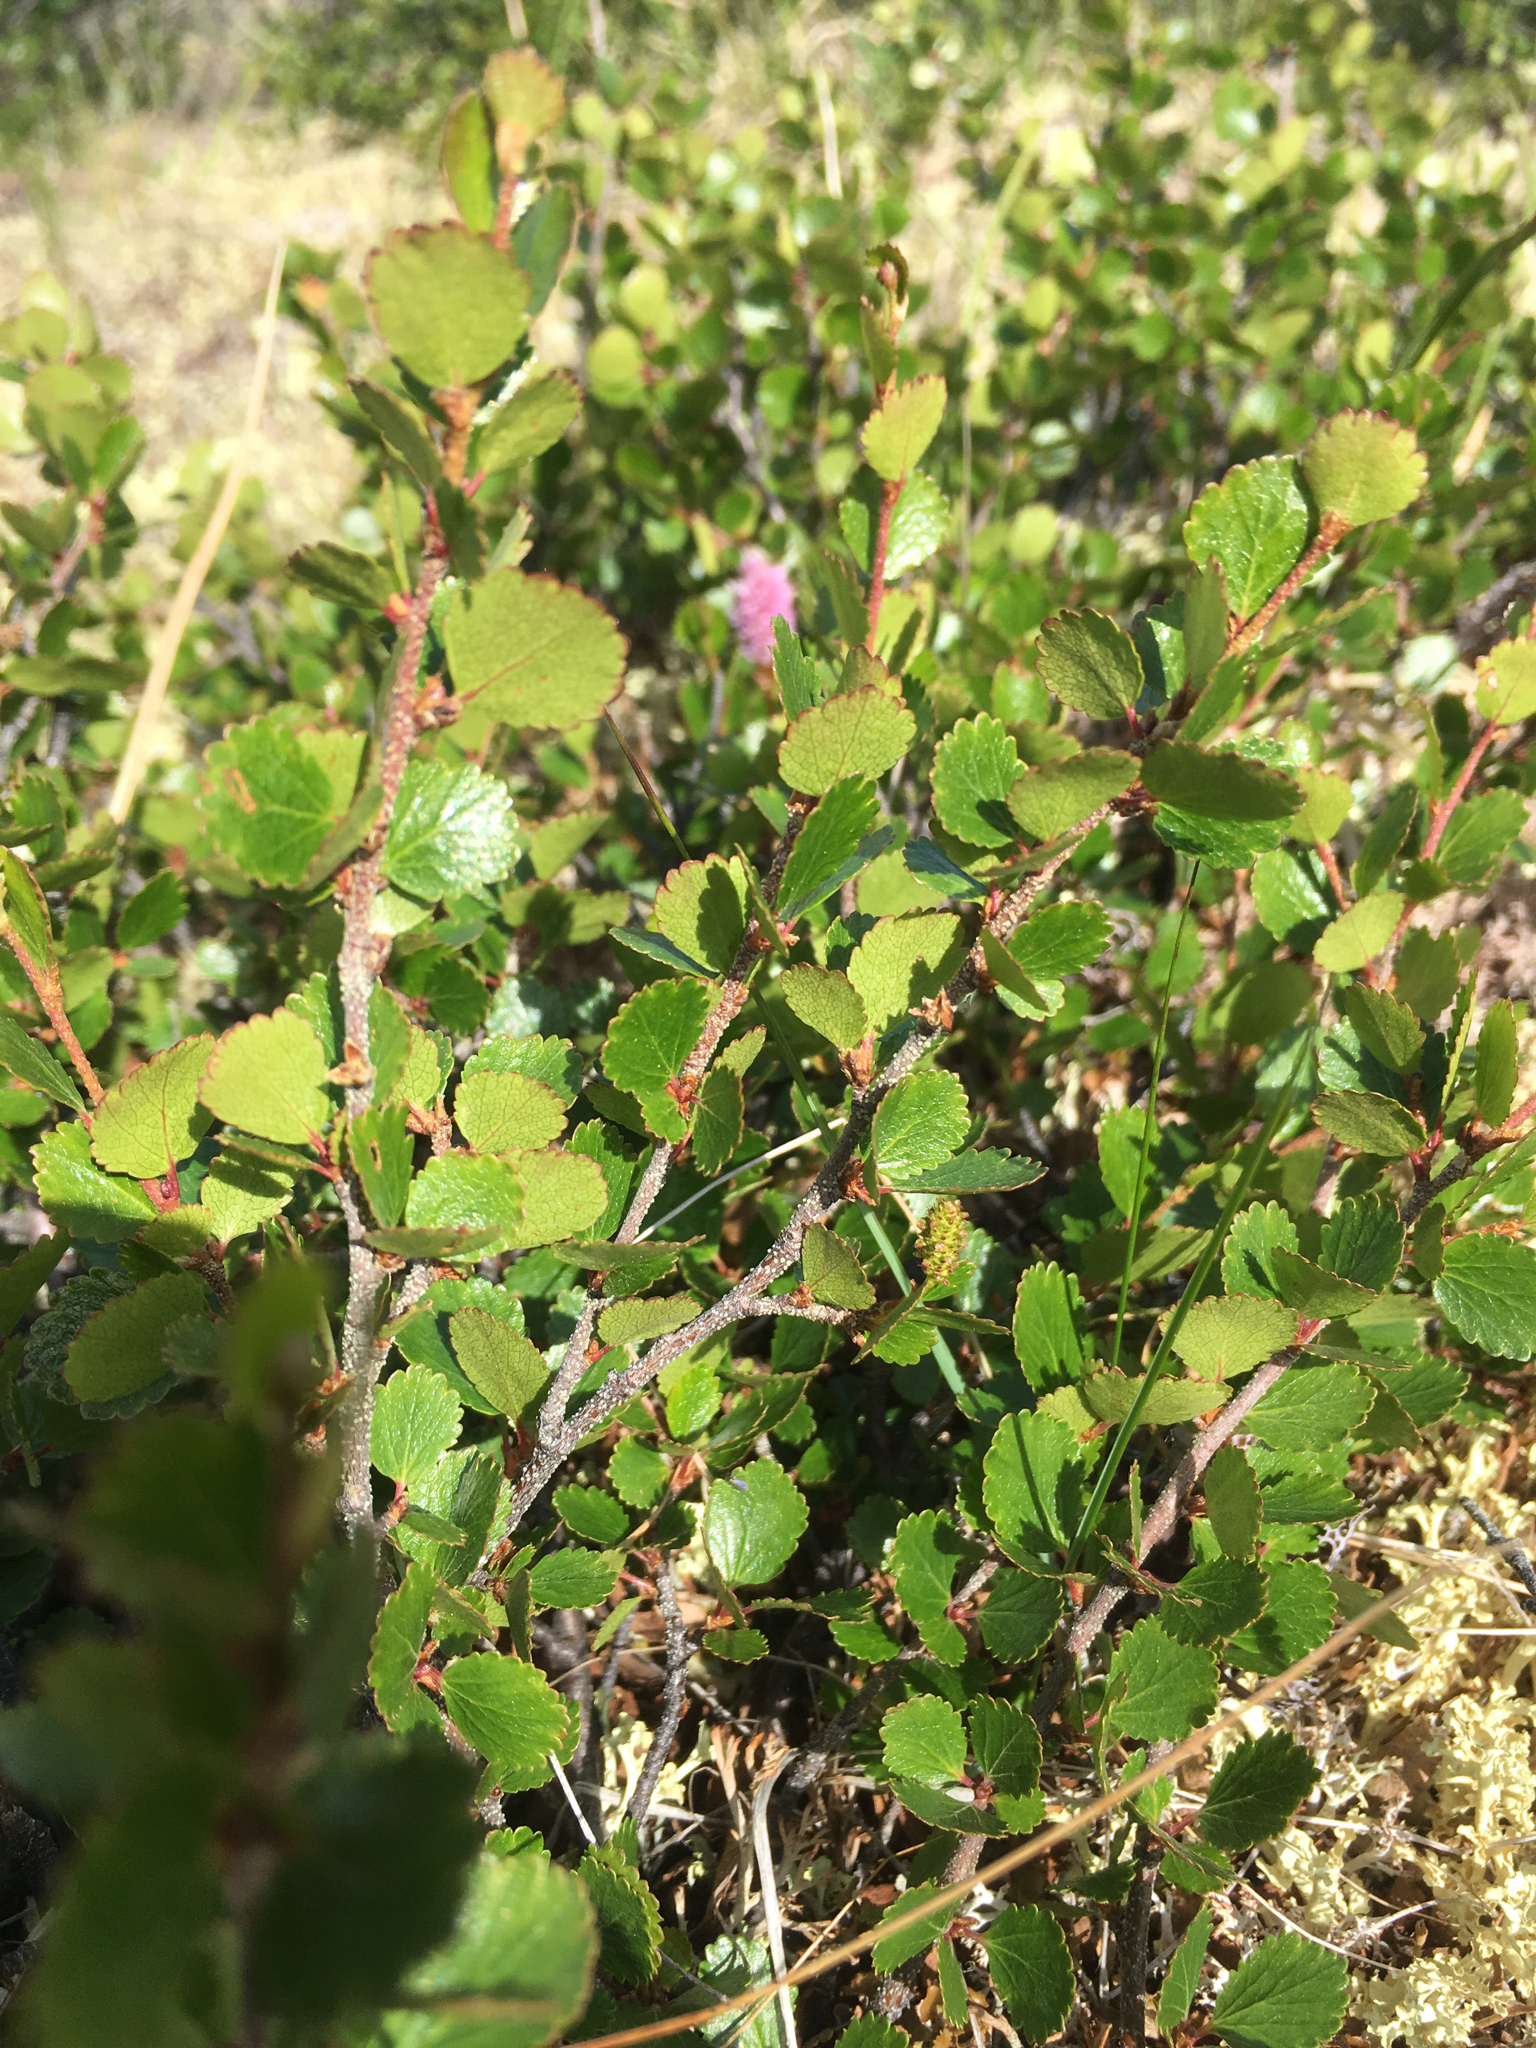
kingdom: Plantae
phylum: Tracheophyta
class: Magnoliopsida
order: Fagales
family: Betulaceae
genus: Betula
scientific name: Betula glandulosa
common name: Dwarf birch
